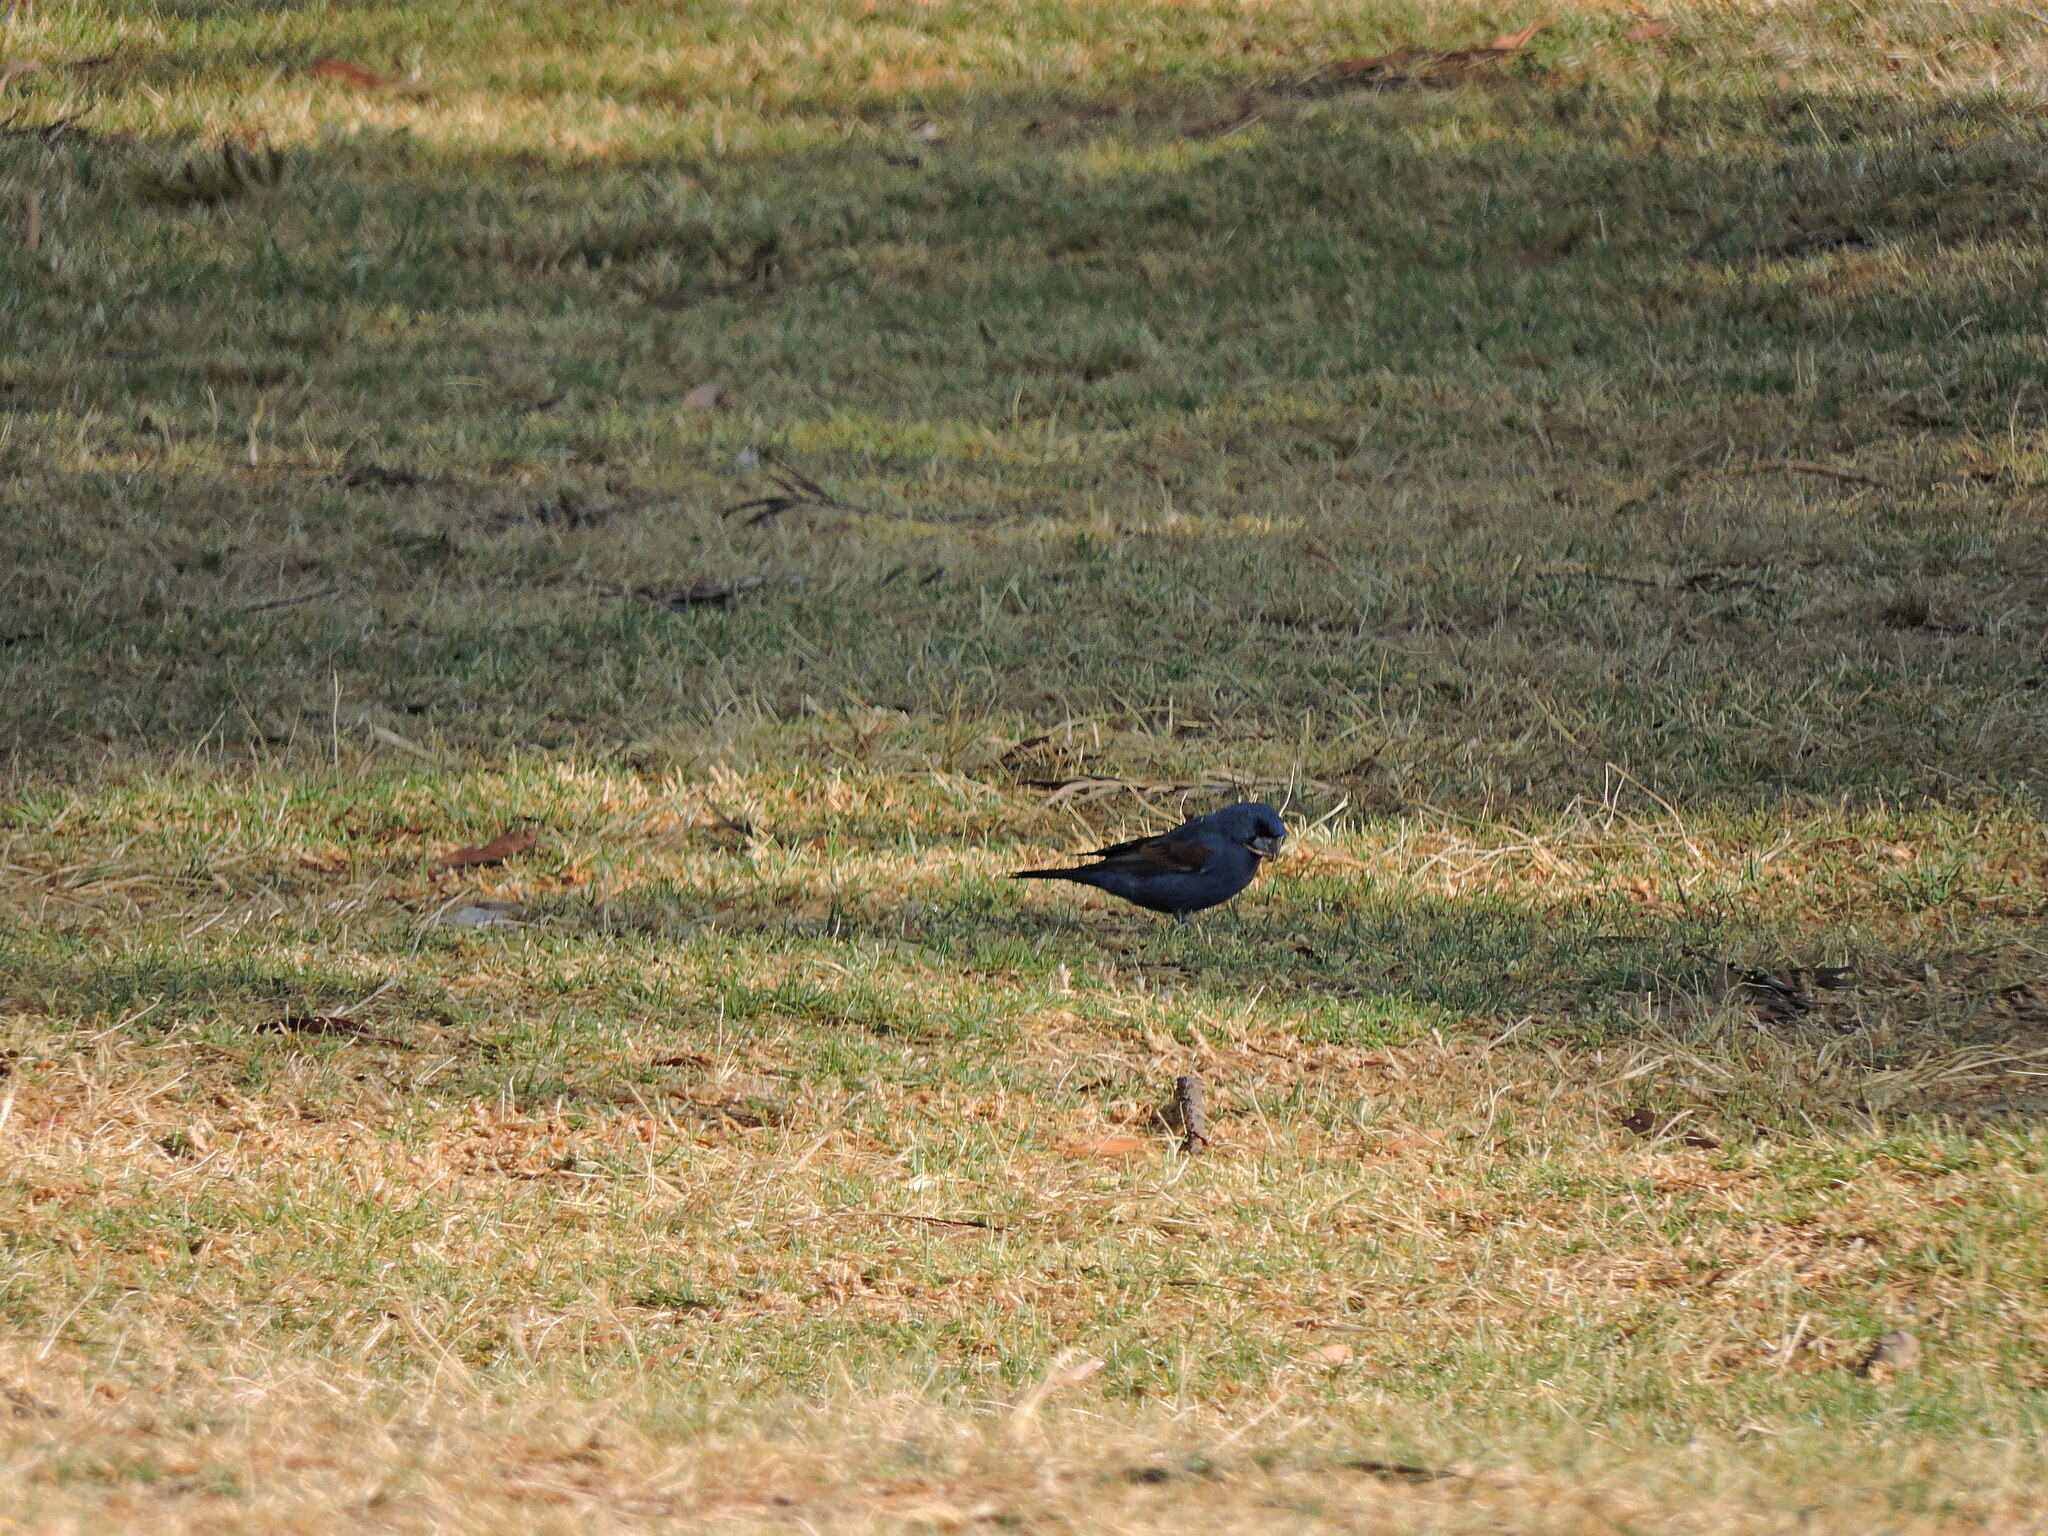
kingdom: Animalia
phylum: Chordata
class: Aves
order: Passeriformes
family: Cardinalidae
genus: Passerina
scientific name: Passerina caerulea
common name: Blue grosbeak
